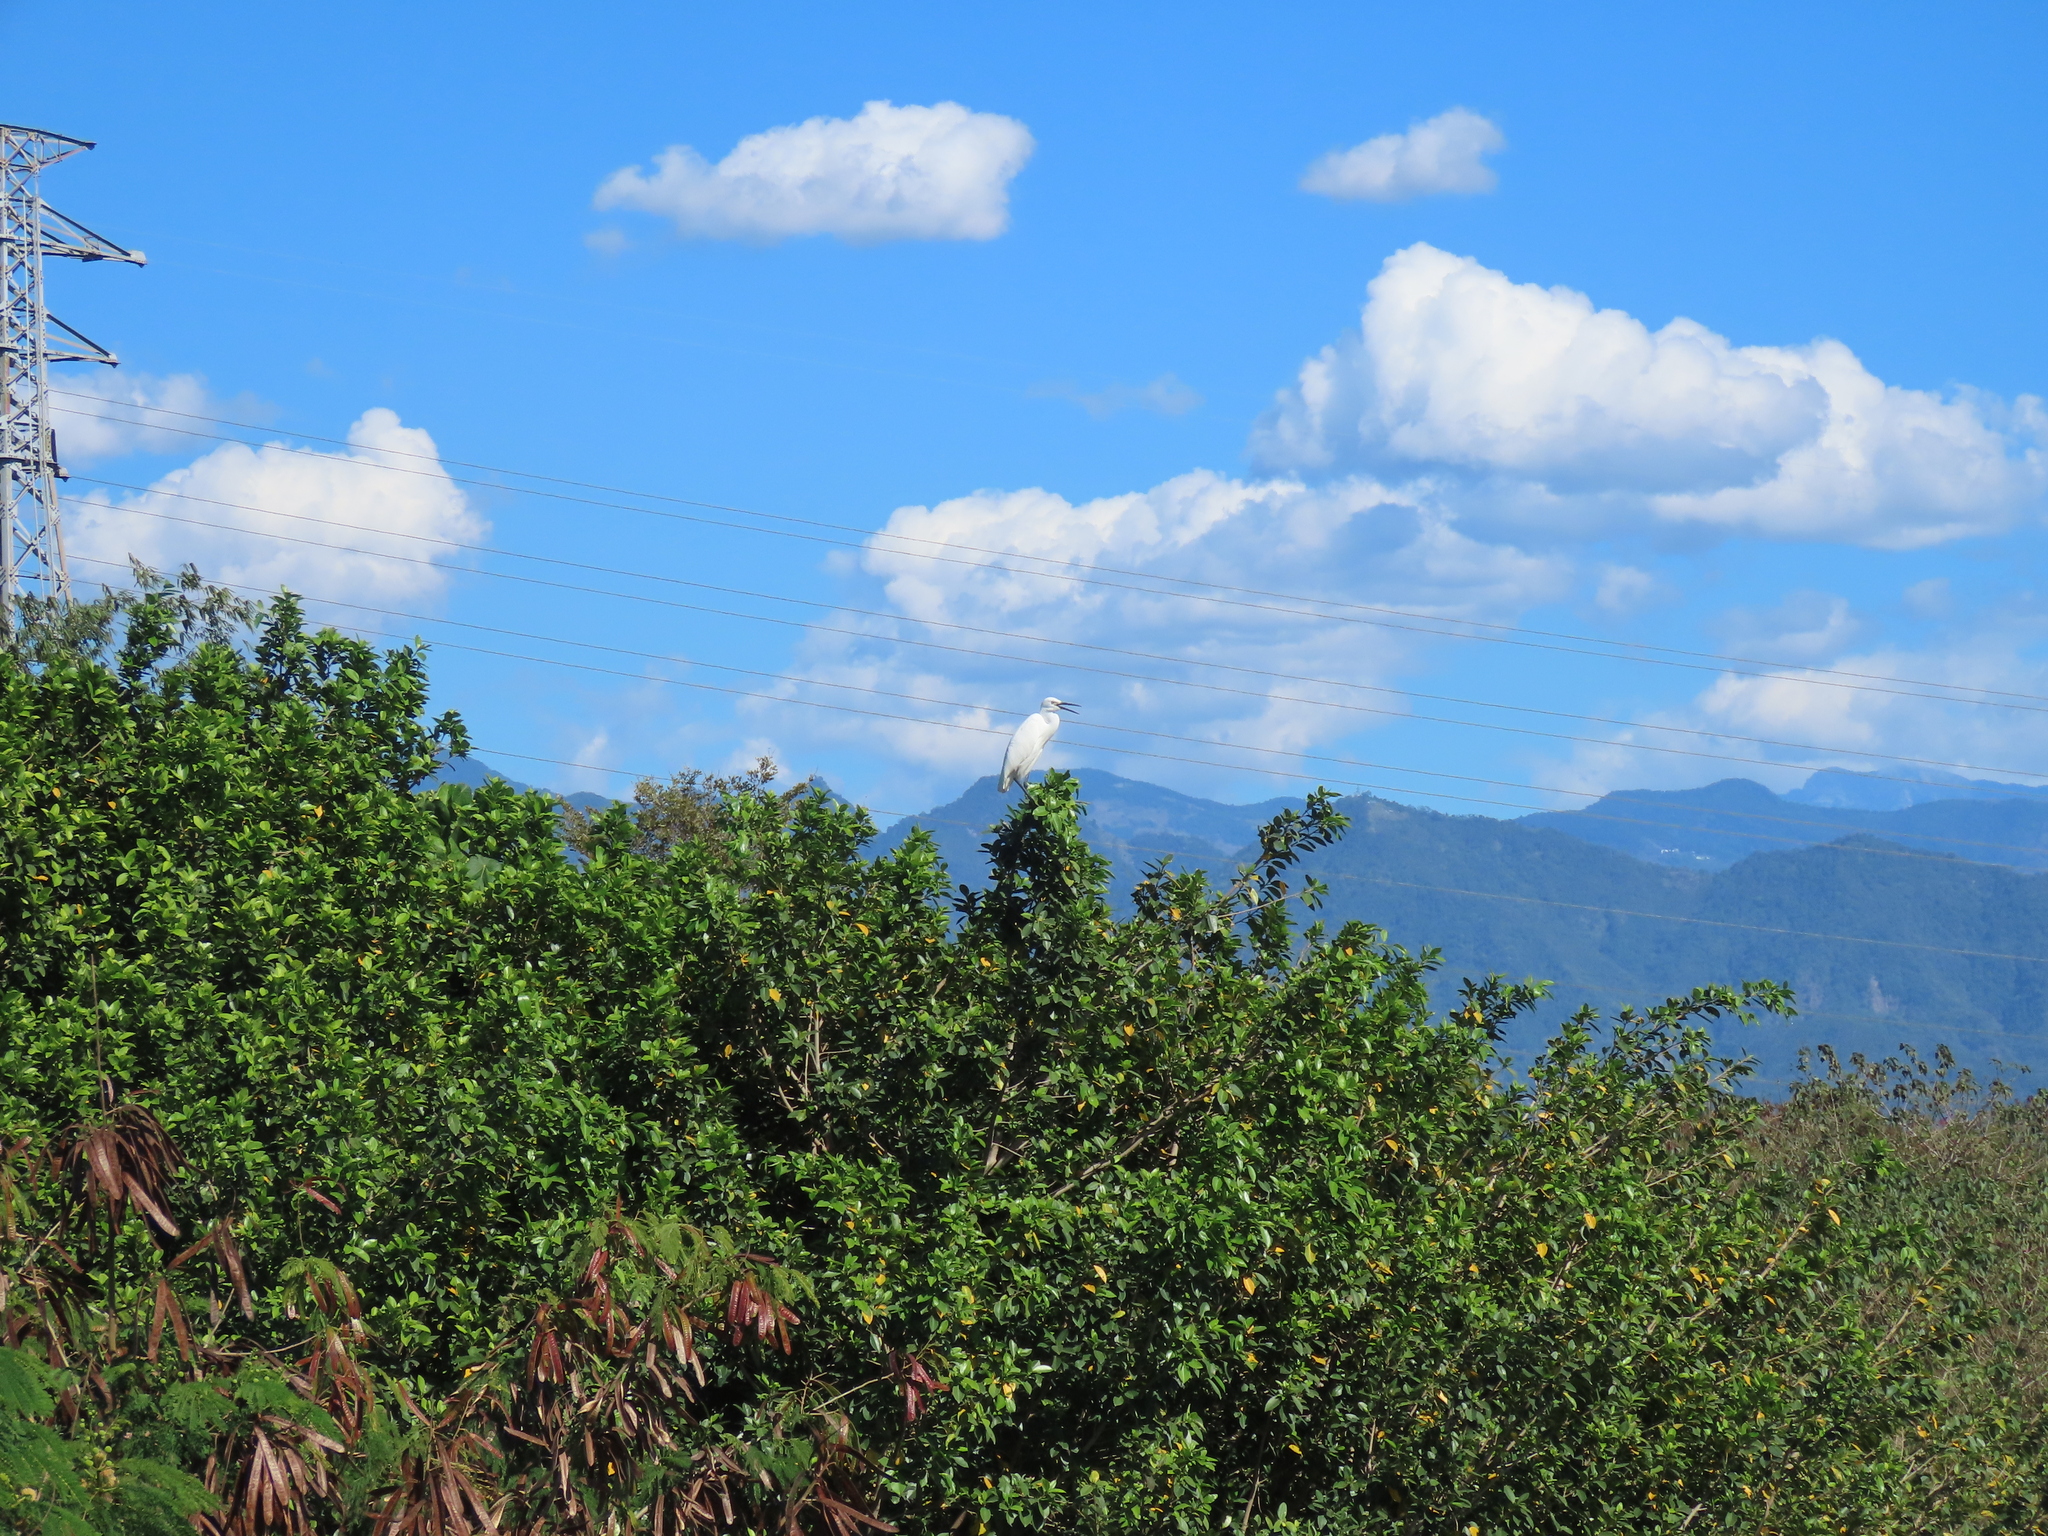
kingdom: Animalia
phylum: Chordata
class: Aves
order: Pelecaniformes
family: Ardeidae
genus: Egretta
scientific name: Egretta garzetta
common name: Little egret
